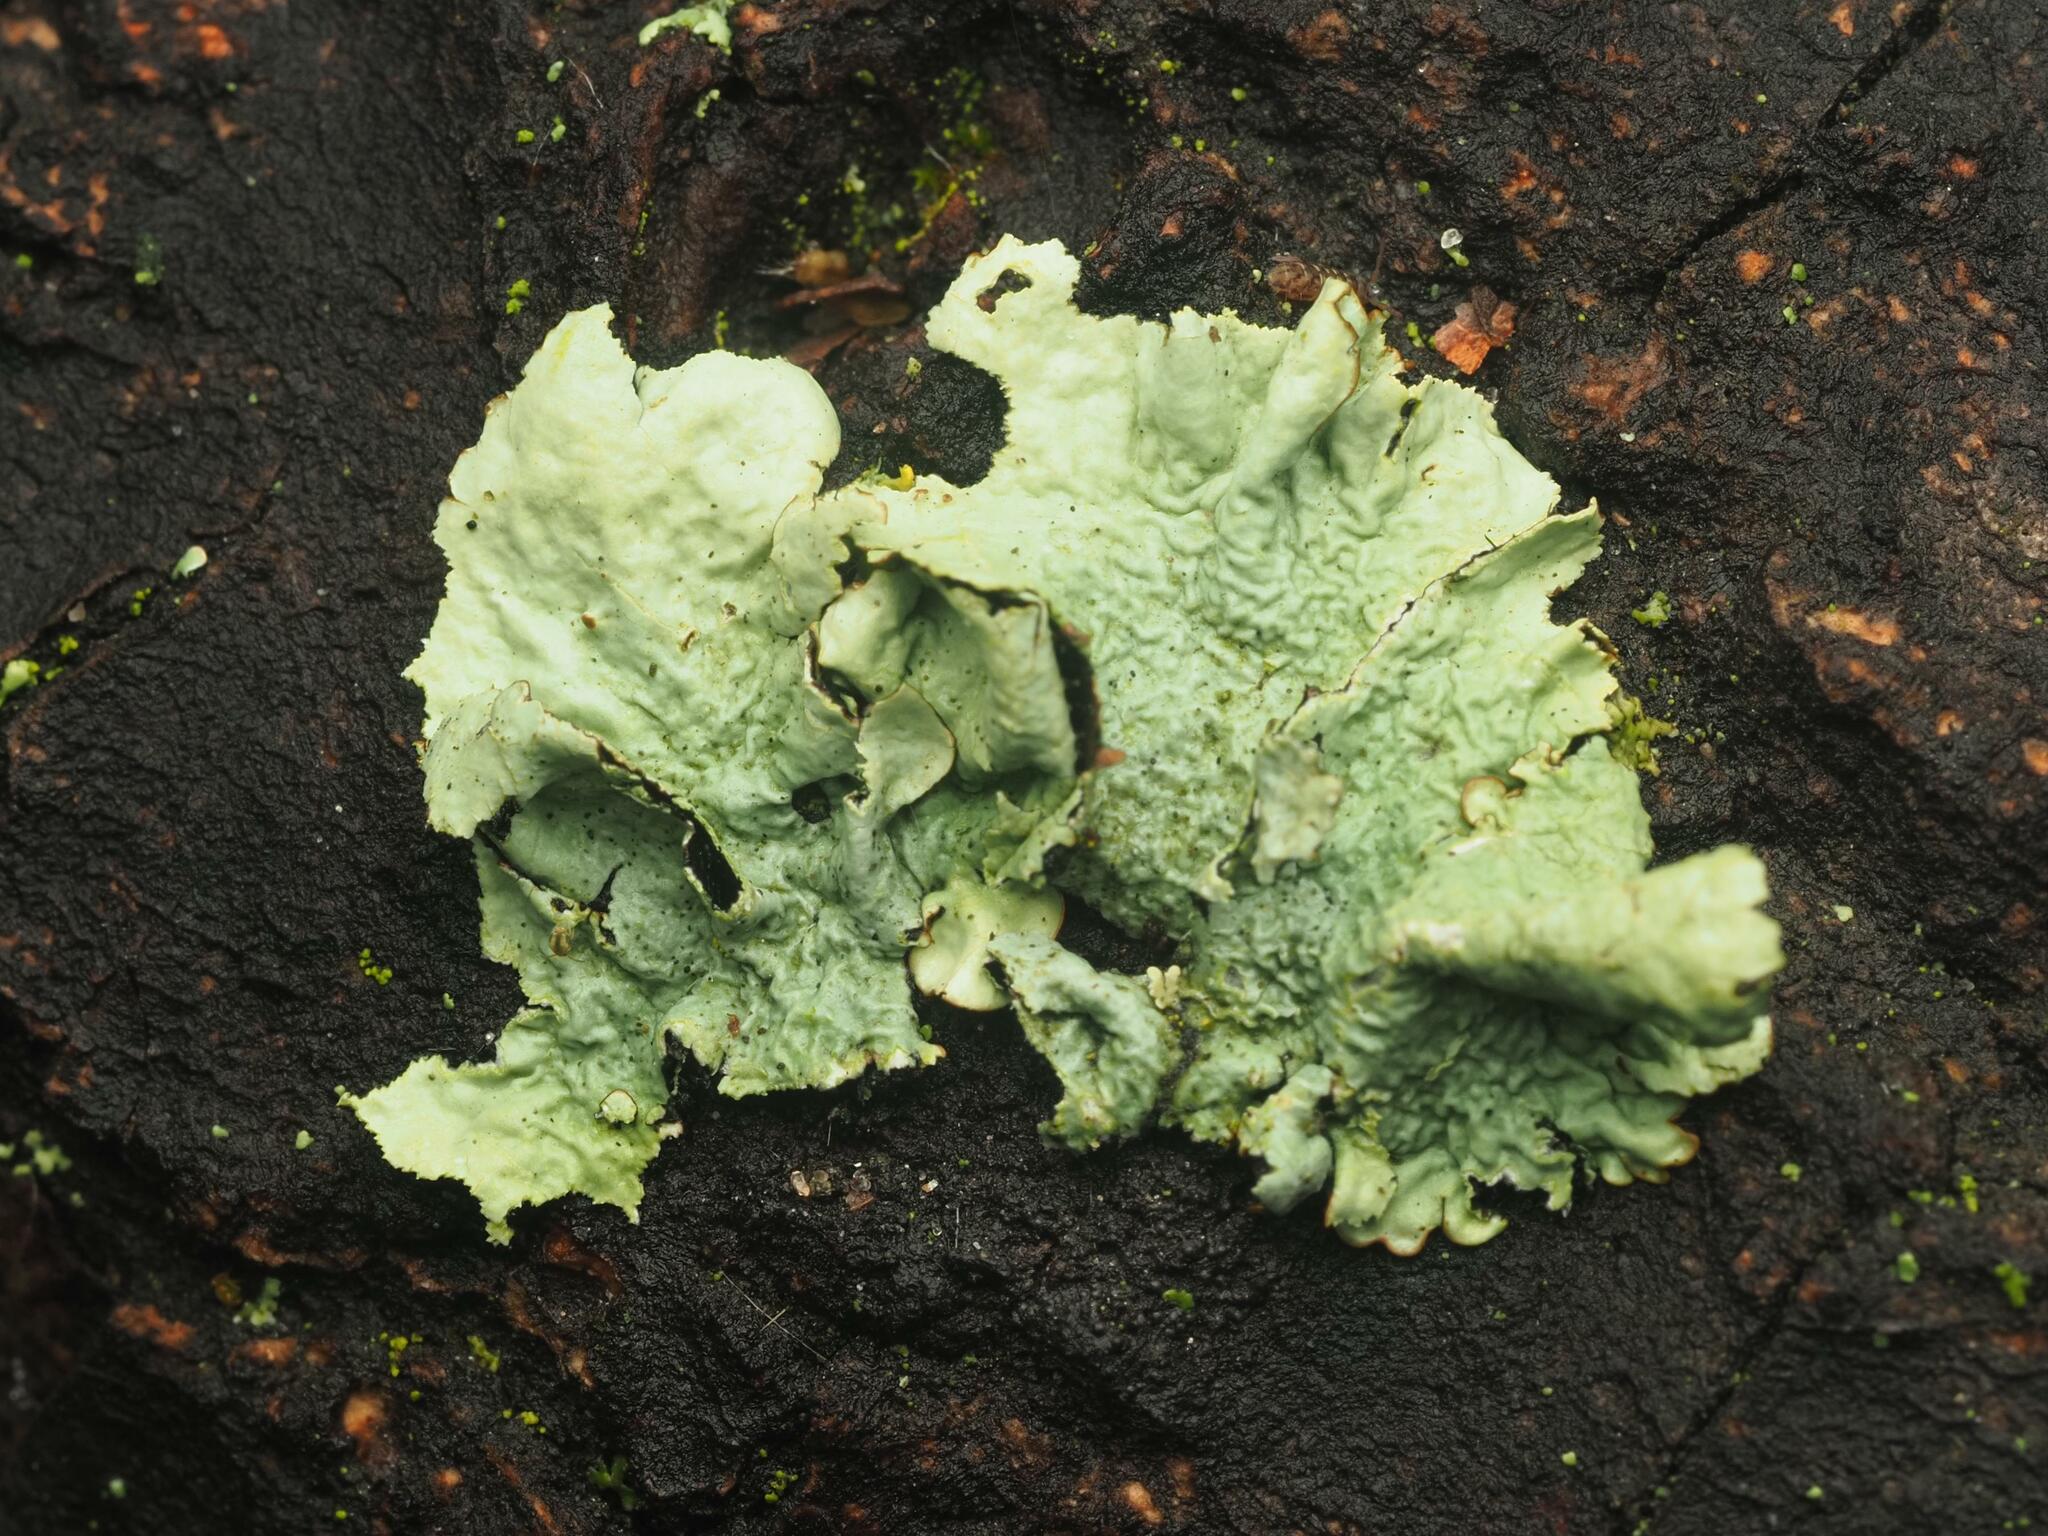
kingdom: Fungi
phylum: Ascomycota
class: Lecanoromycetes
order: Lecanorales
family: Parmeliaceae
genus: Flavoparmelia
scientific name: Flavoparmelia caperata
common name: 40-mile per hour lichen
